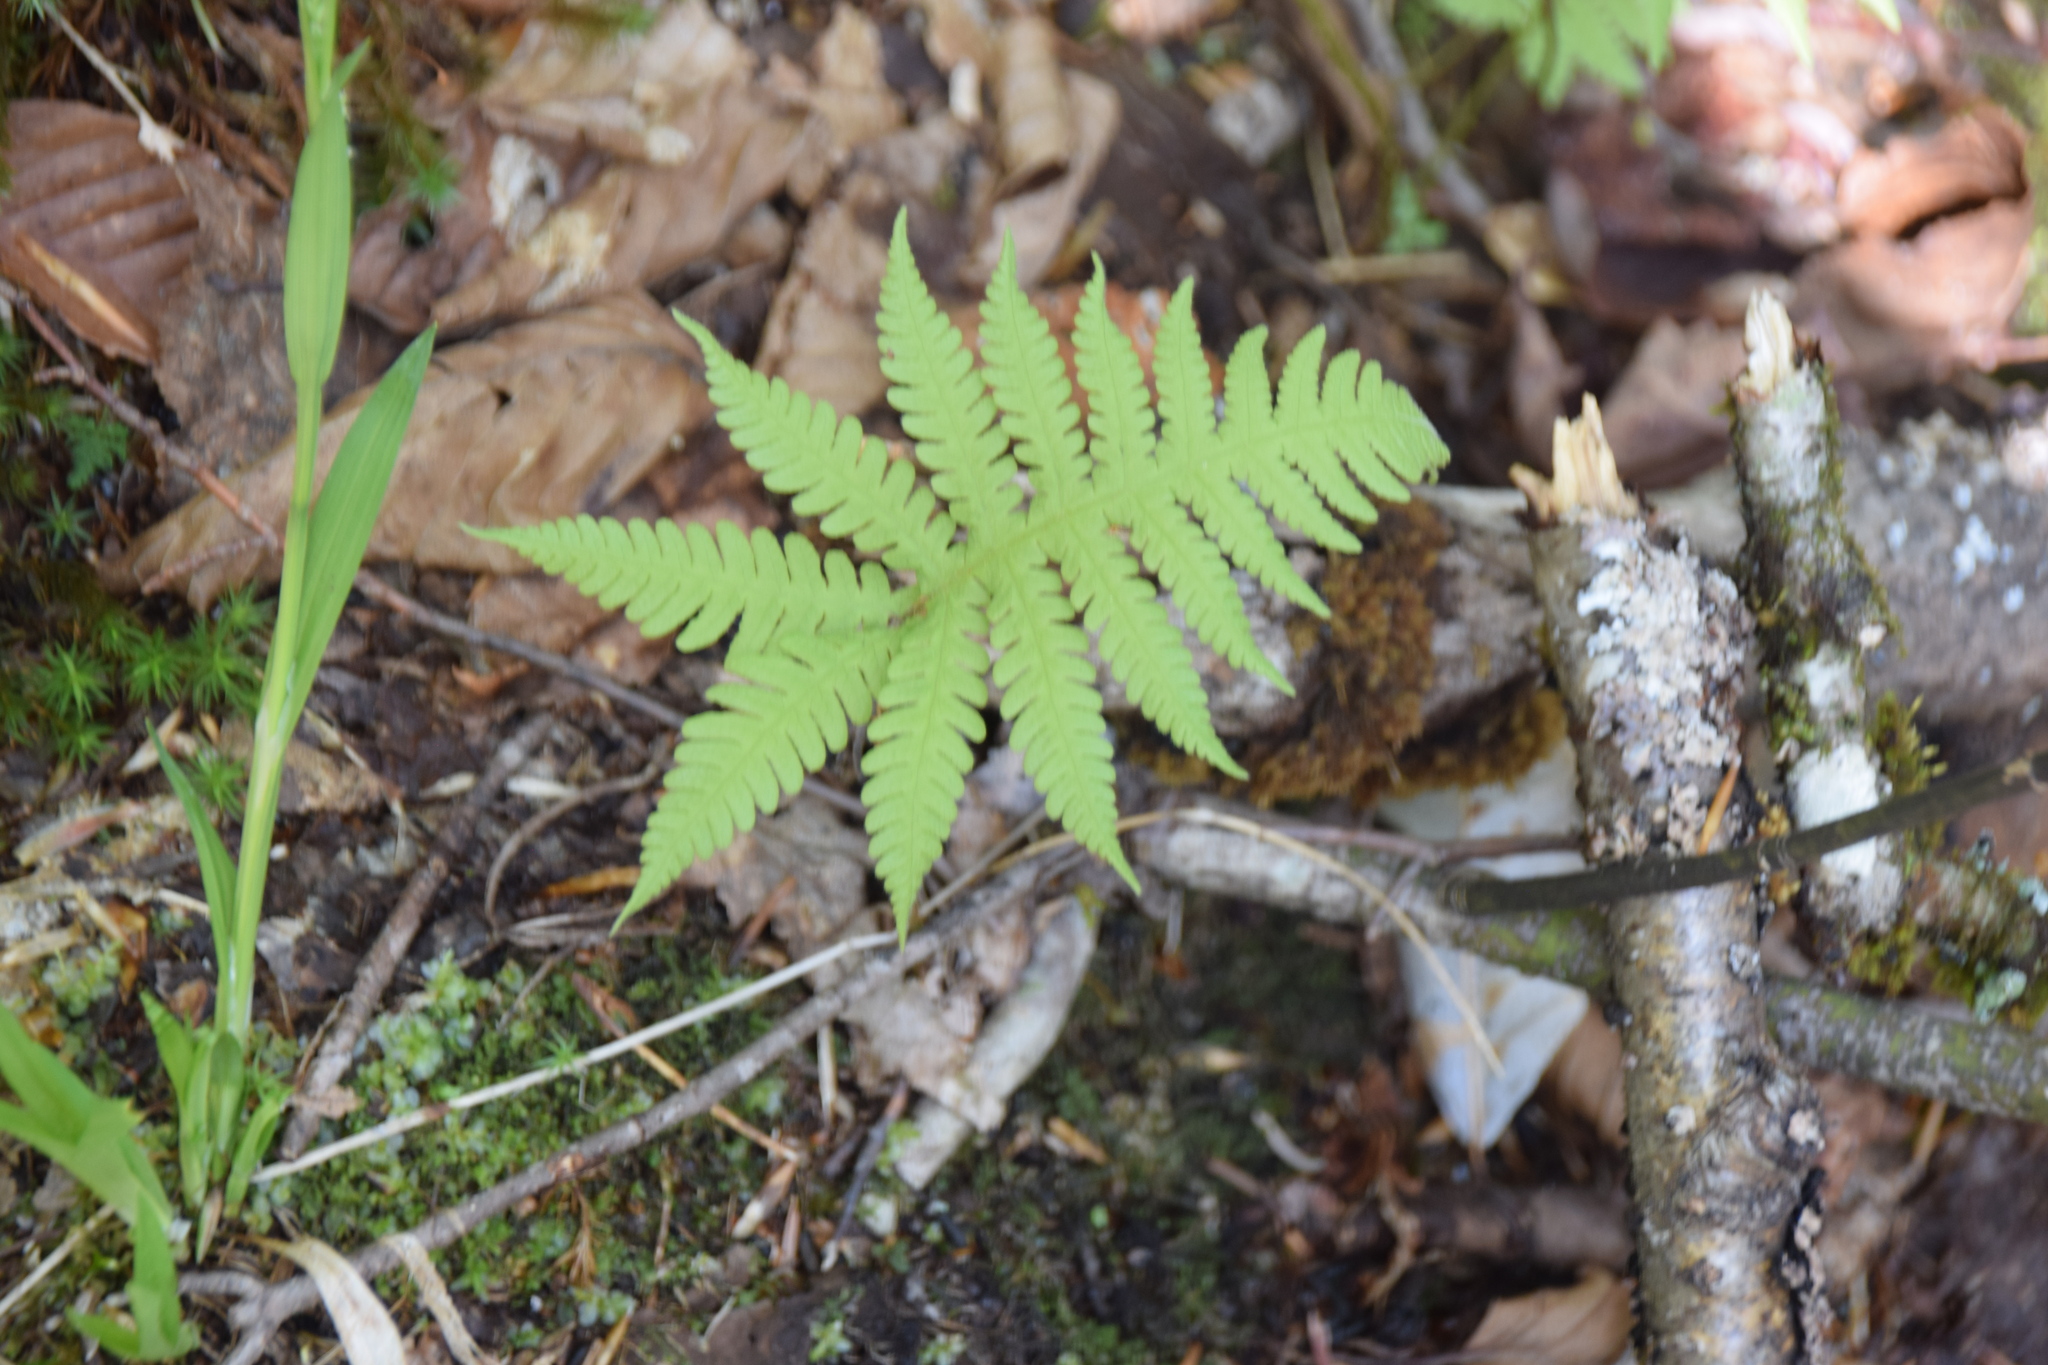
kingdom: Plantae
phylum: Tracheophyta
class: Polypodiopsida
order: Polypodiales
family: Thelypteridaceae
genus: Phegopteris
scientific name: Phegopteris connectilis
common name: Beech fern
